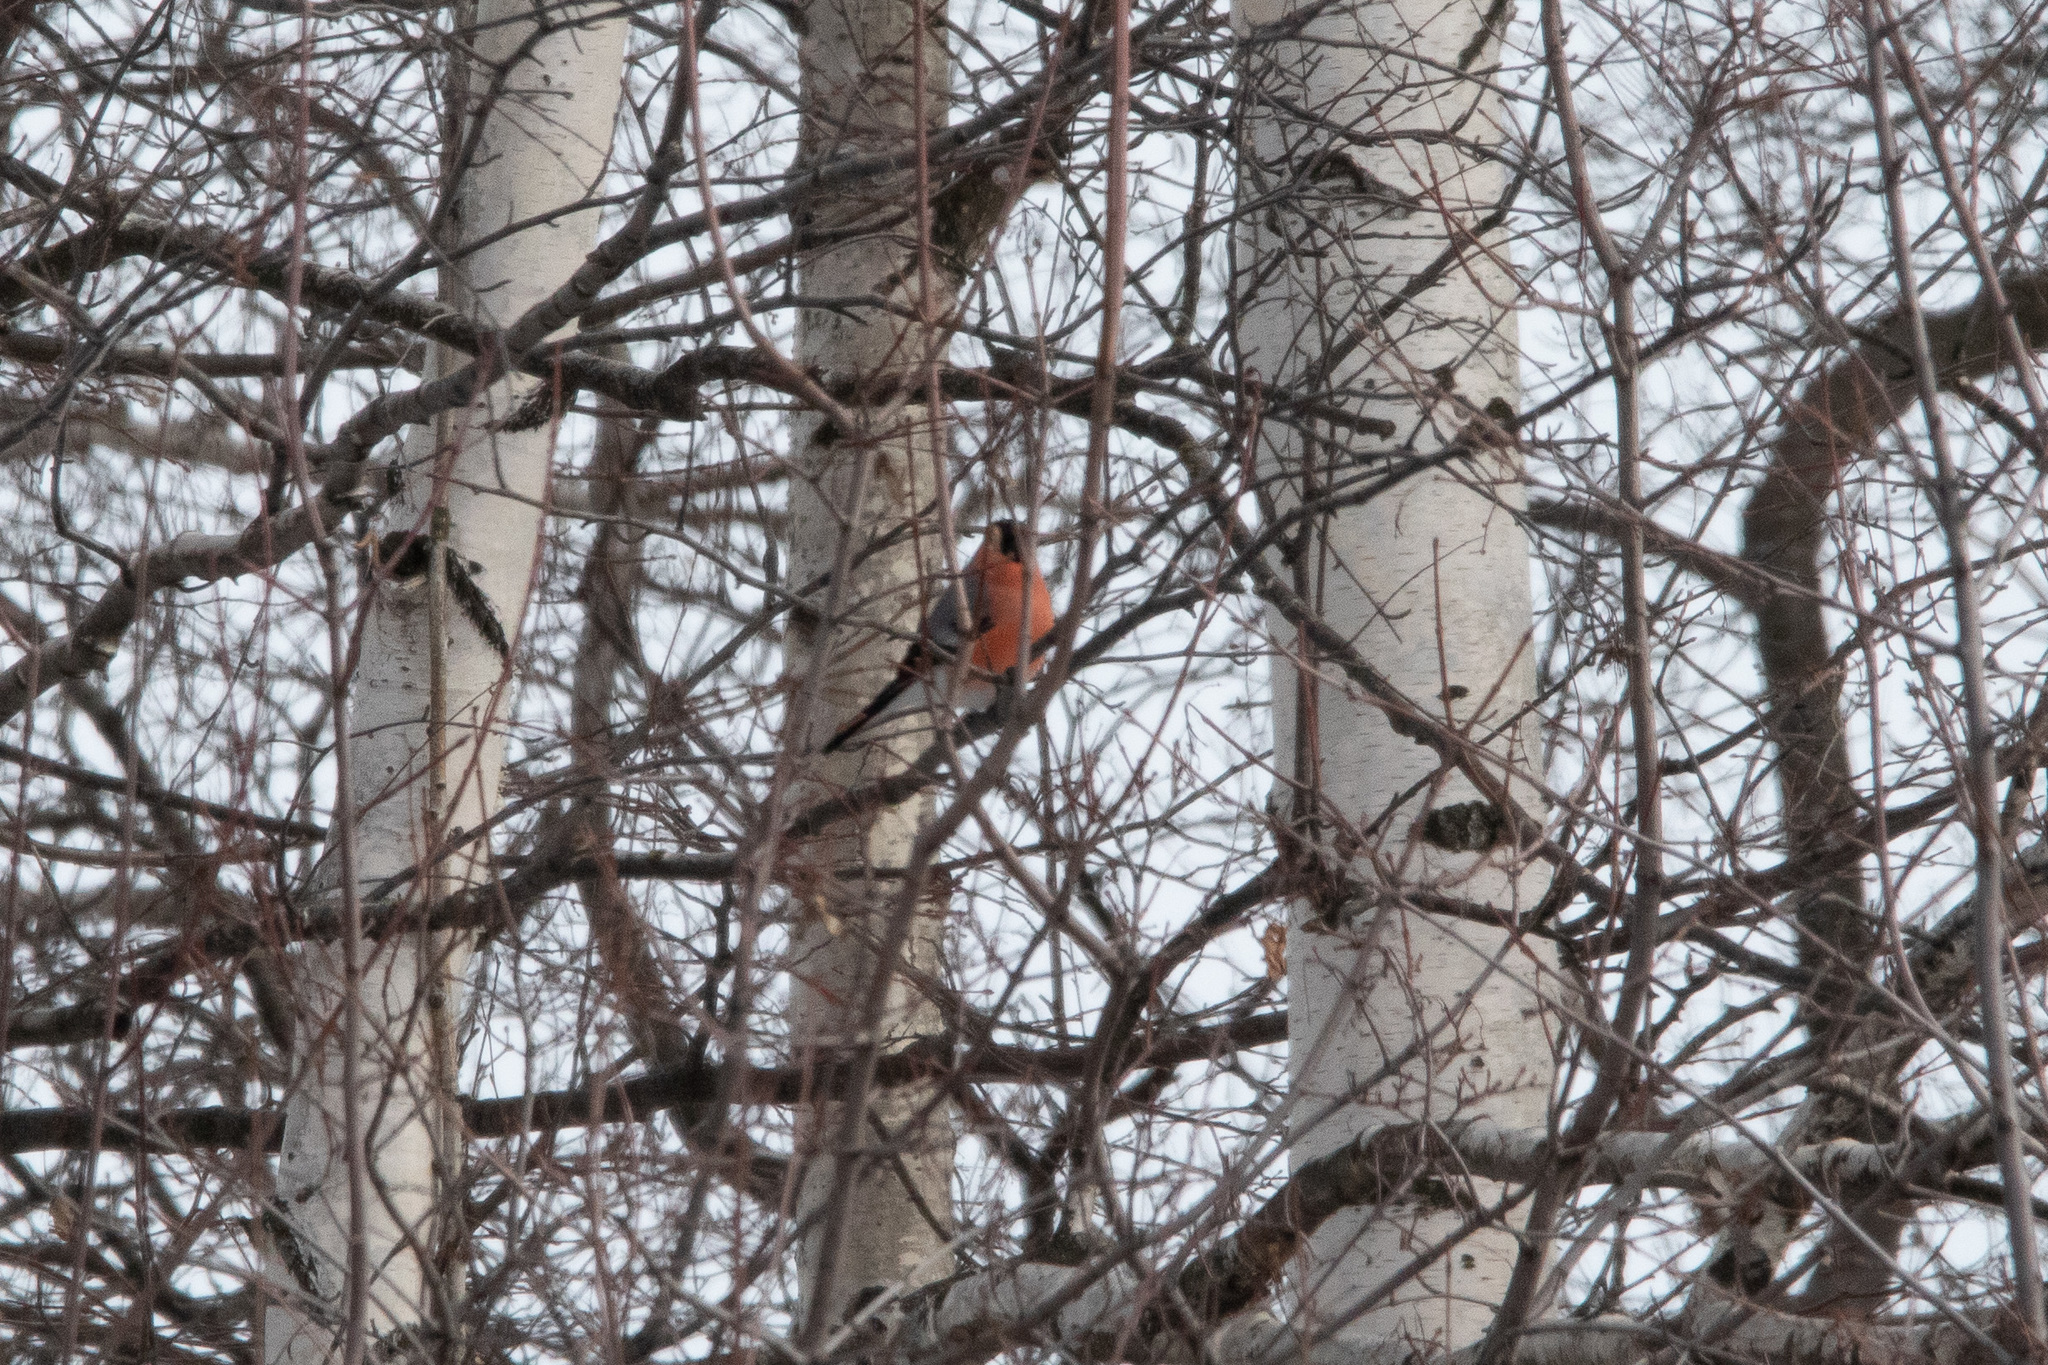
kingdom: Animalia
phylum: Chordata
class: Aves
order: Passeriformes
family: Fringillidae
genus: Pyrrhula
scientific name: Pyrrhula pyrrhula
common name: Eurasian bullfinch
